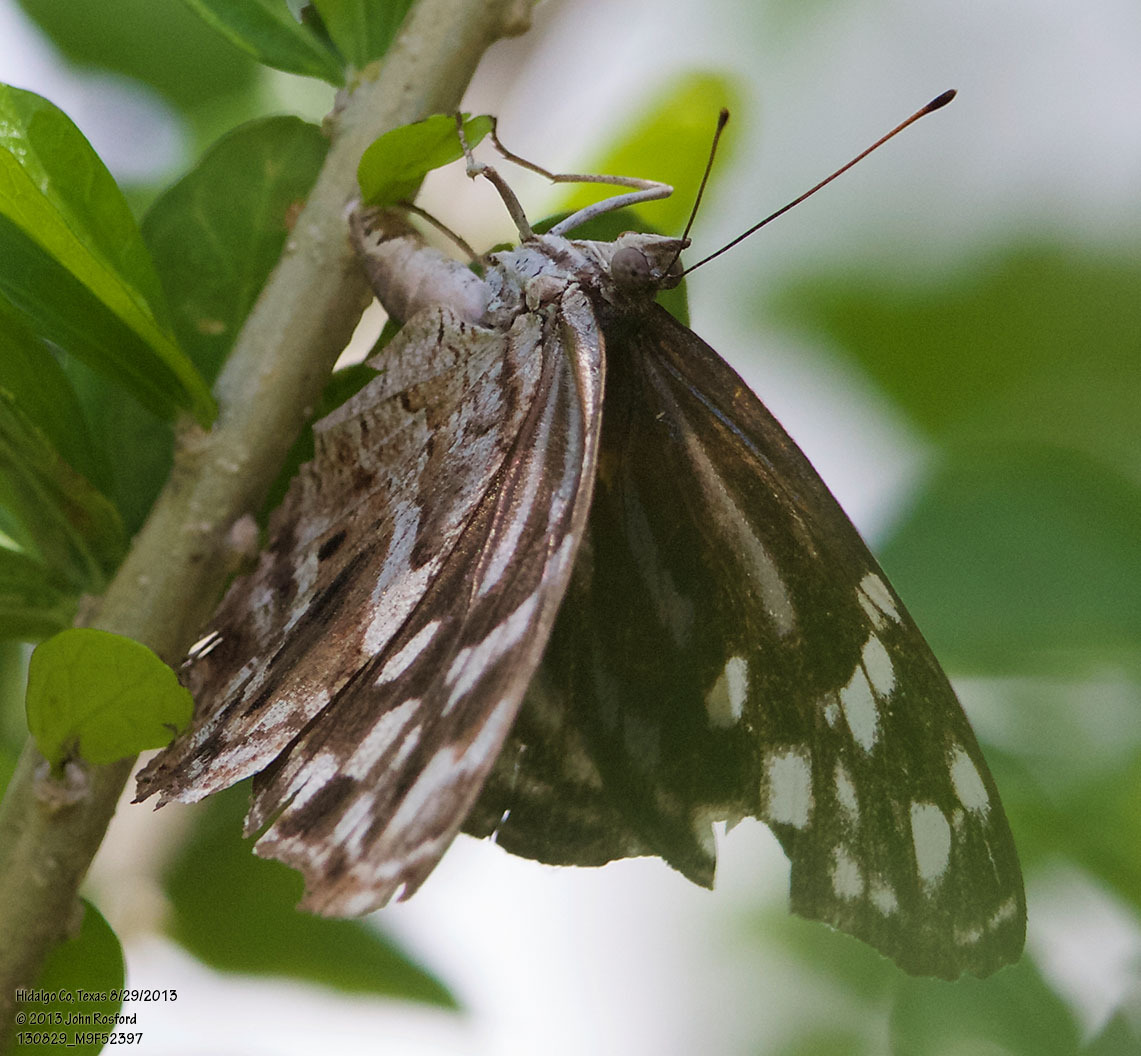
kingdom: Animalia
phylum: Arthropoda
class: Insecta
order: Lepidoptera
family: Nymphalidae
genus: Myscelia
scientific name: Myscelia ethusa
